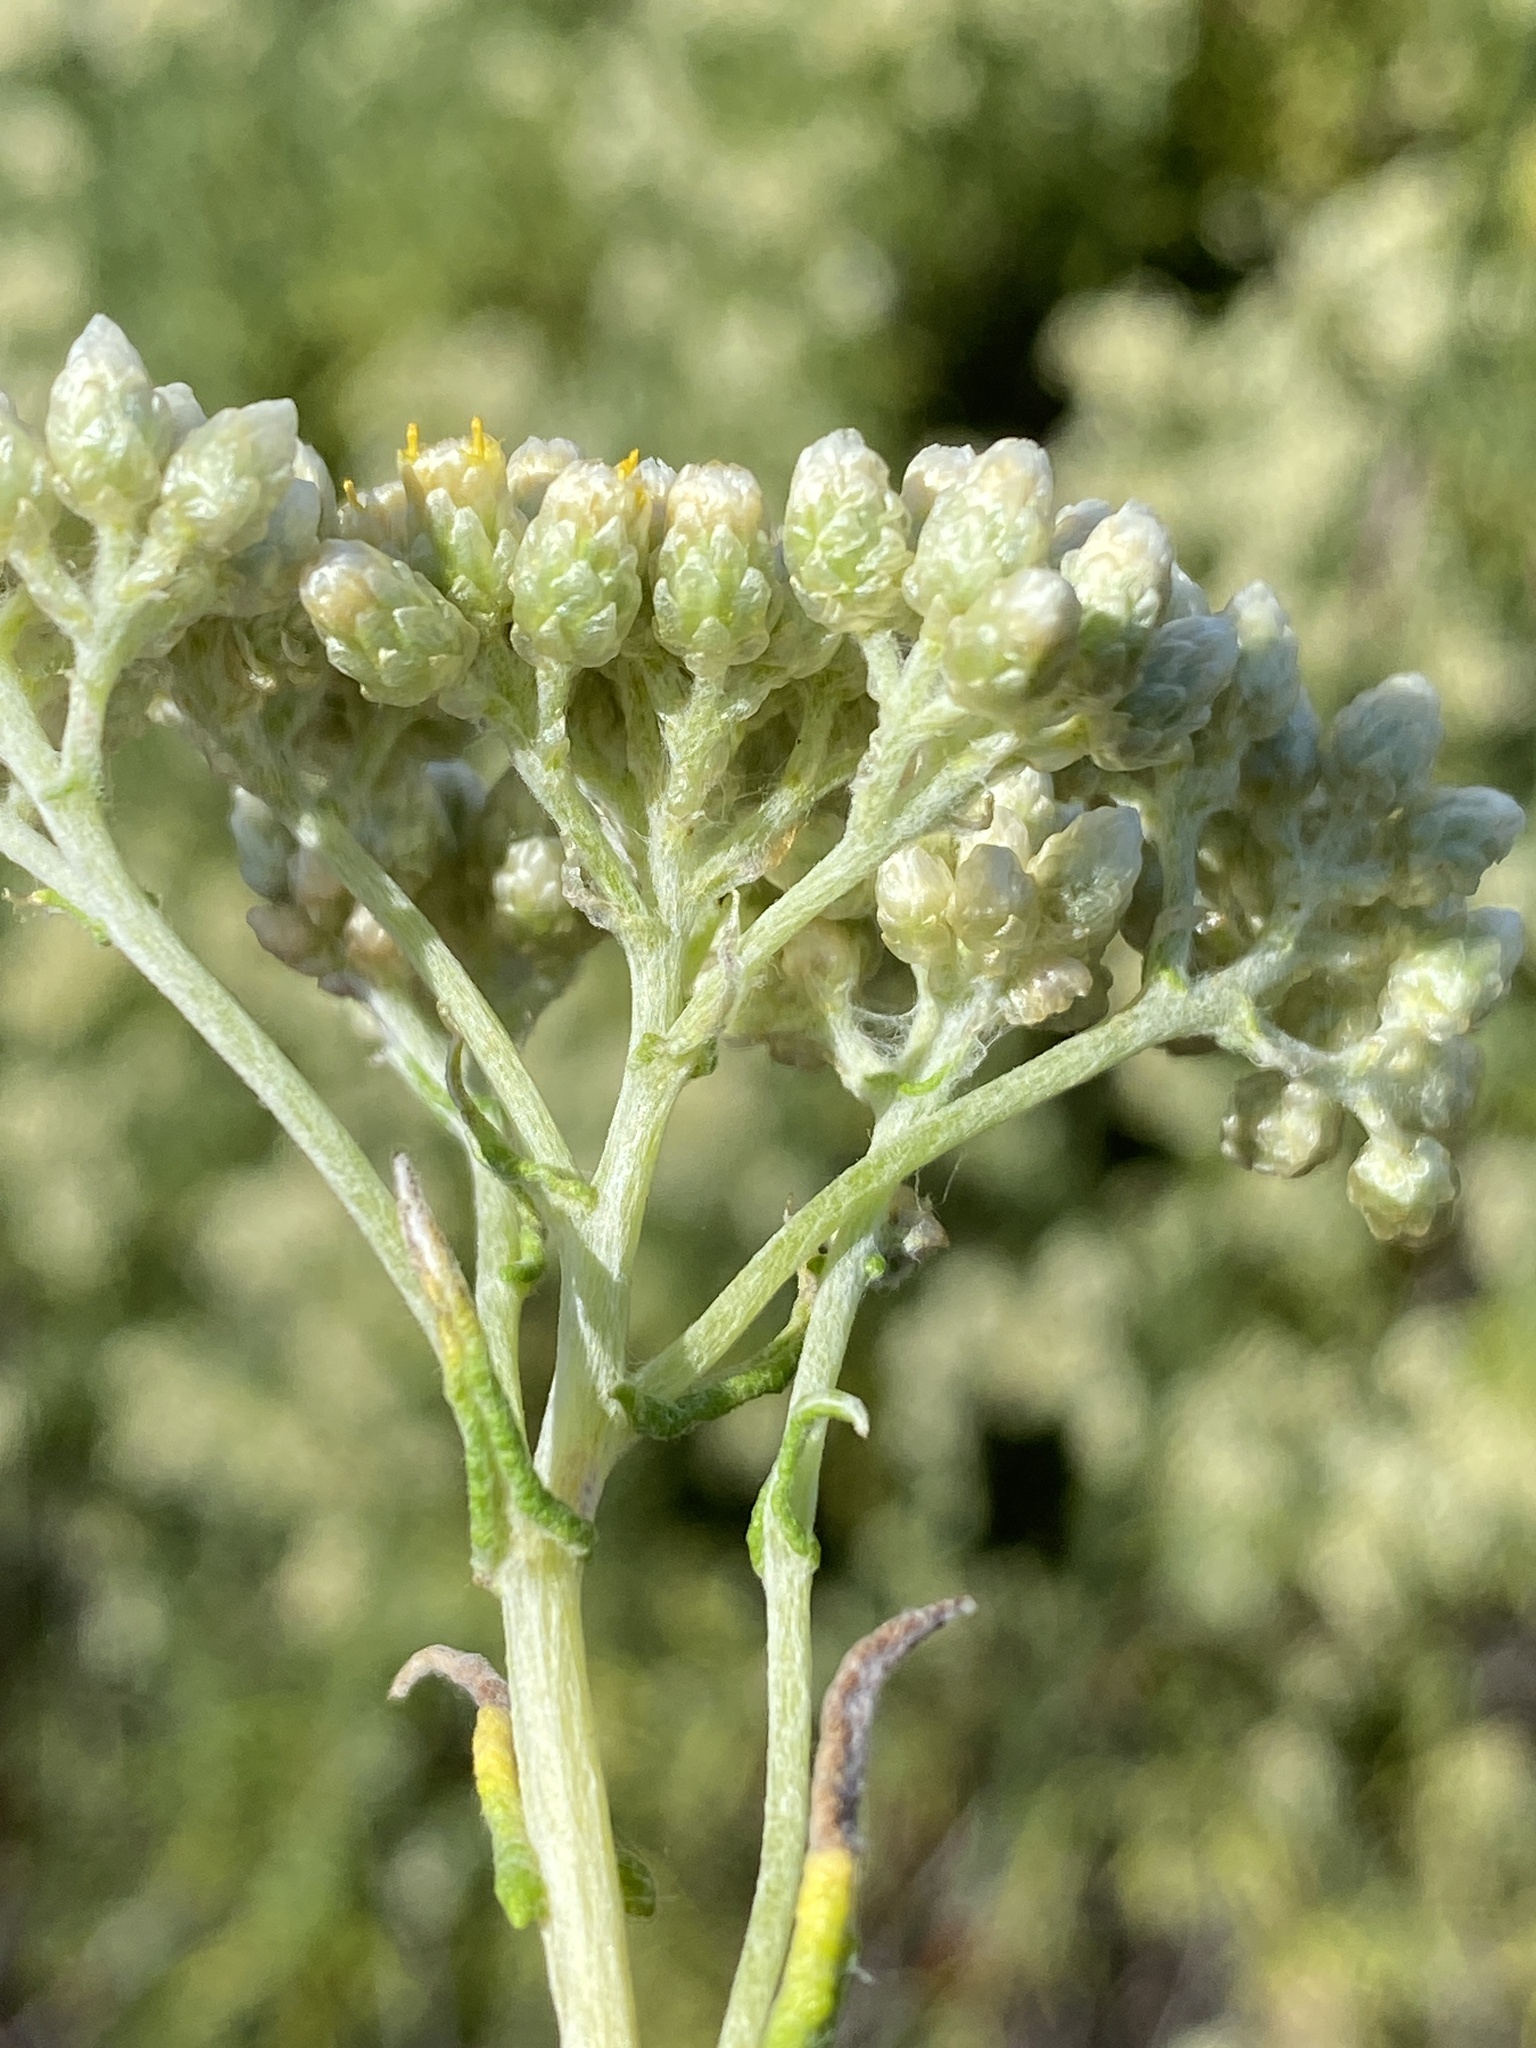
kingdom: Plantae
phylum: Tracheophyta
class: Magnoliopsida
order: Asterales
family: Asteraceae
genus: Helichrysum
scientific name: Helichrysum revolutum
